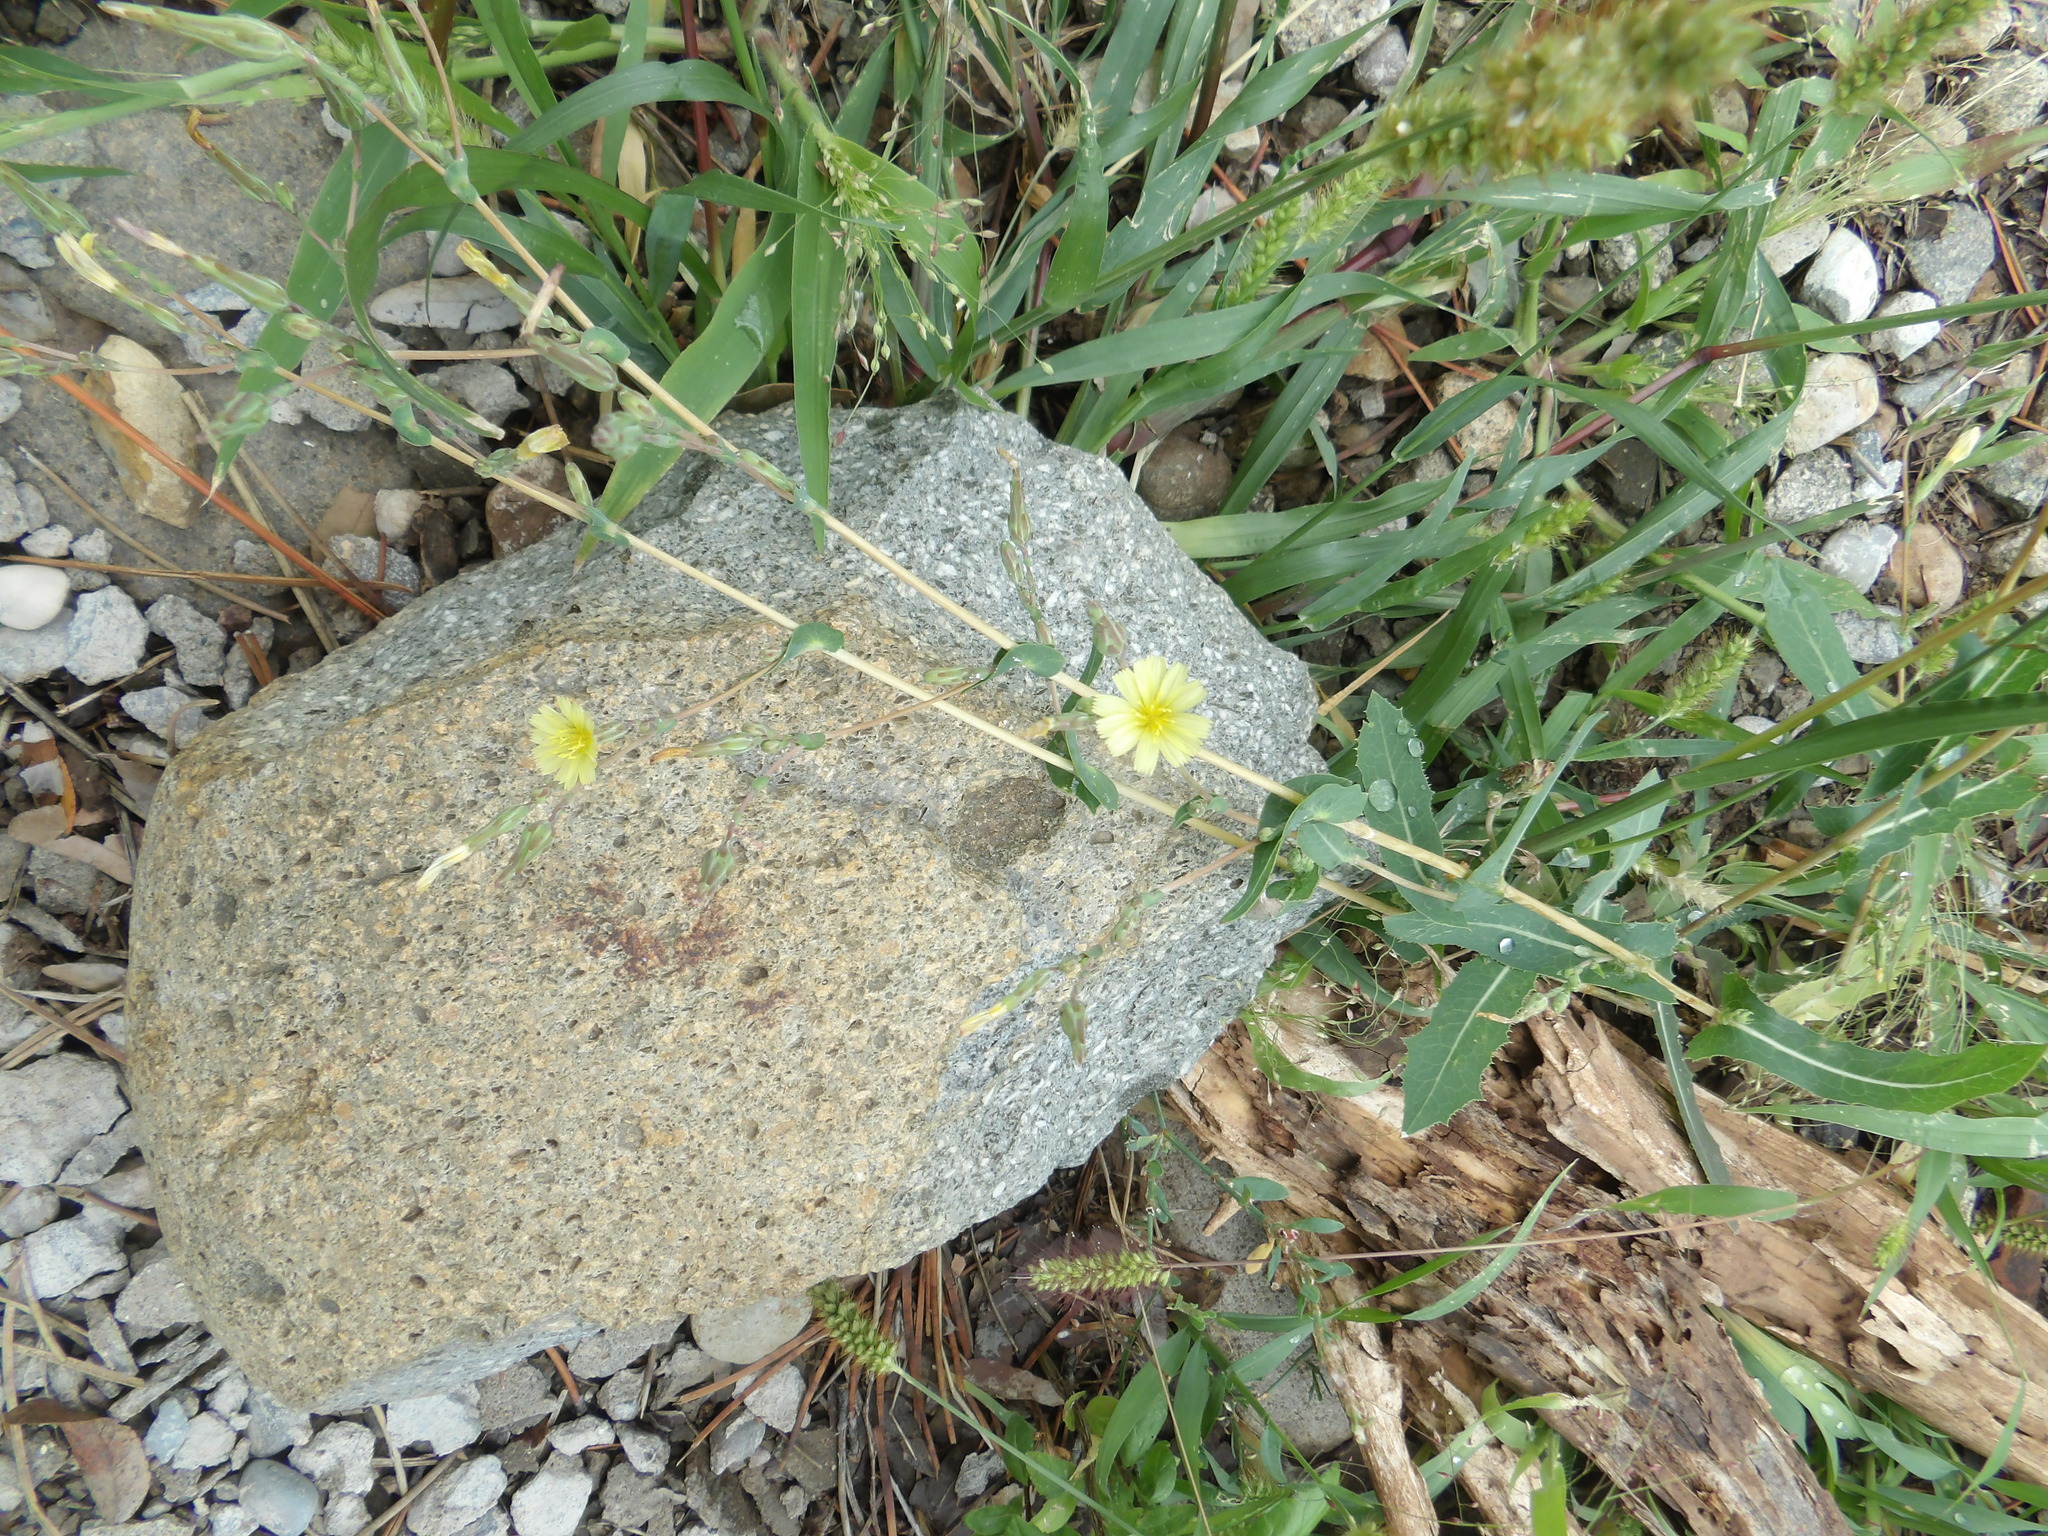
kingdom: Plantae
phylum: Tracheophyta
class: Magnoliopsida
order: Asterales
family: Asteraceae
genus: Lactuca
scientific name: Lactuca serriola
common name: Prickly lettuce
